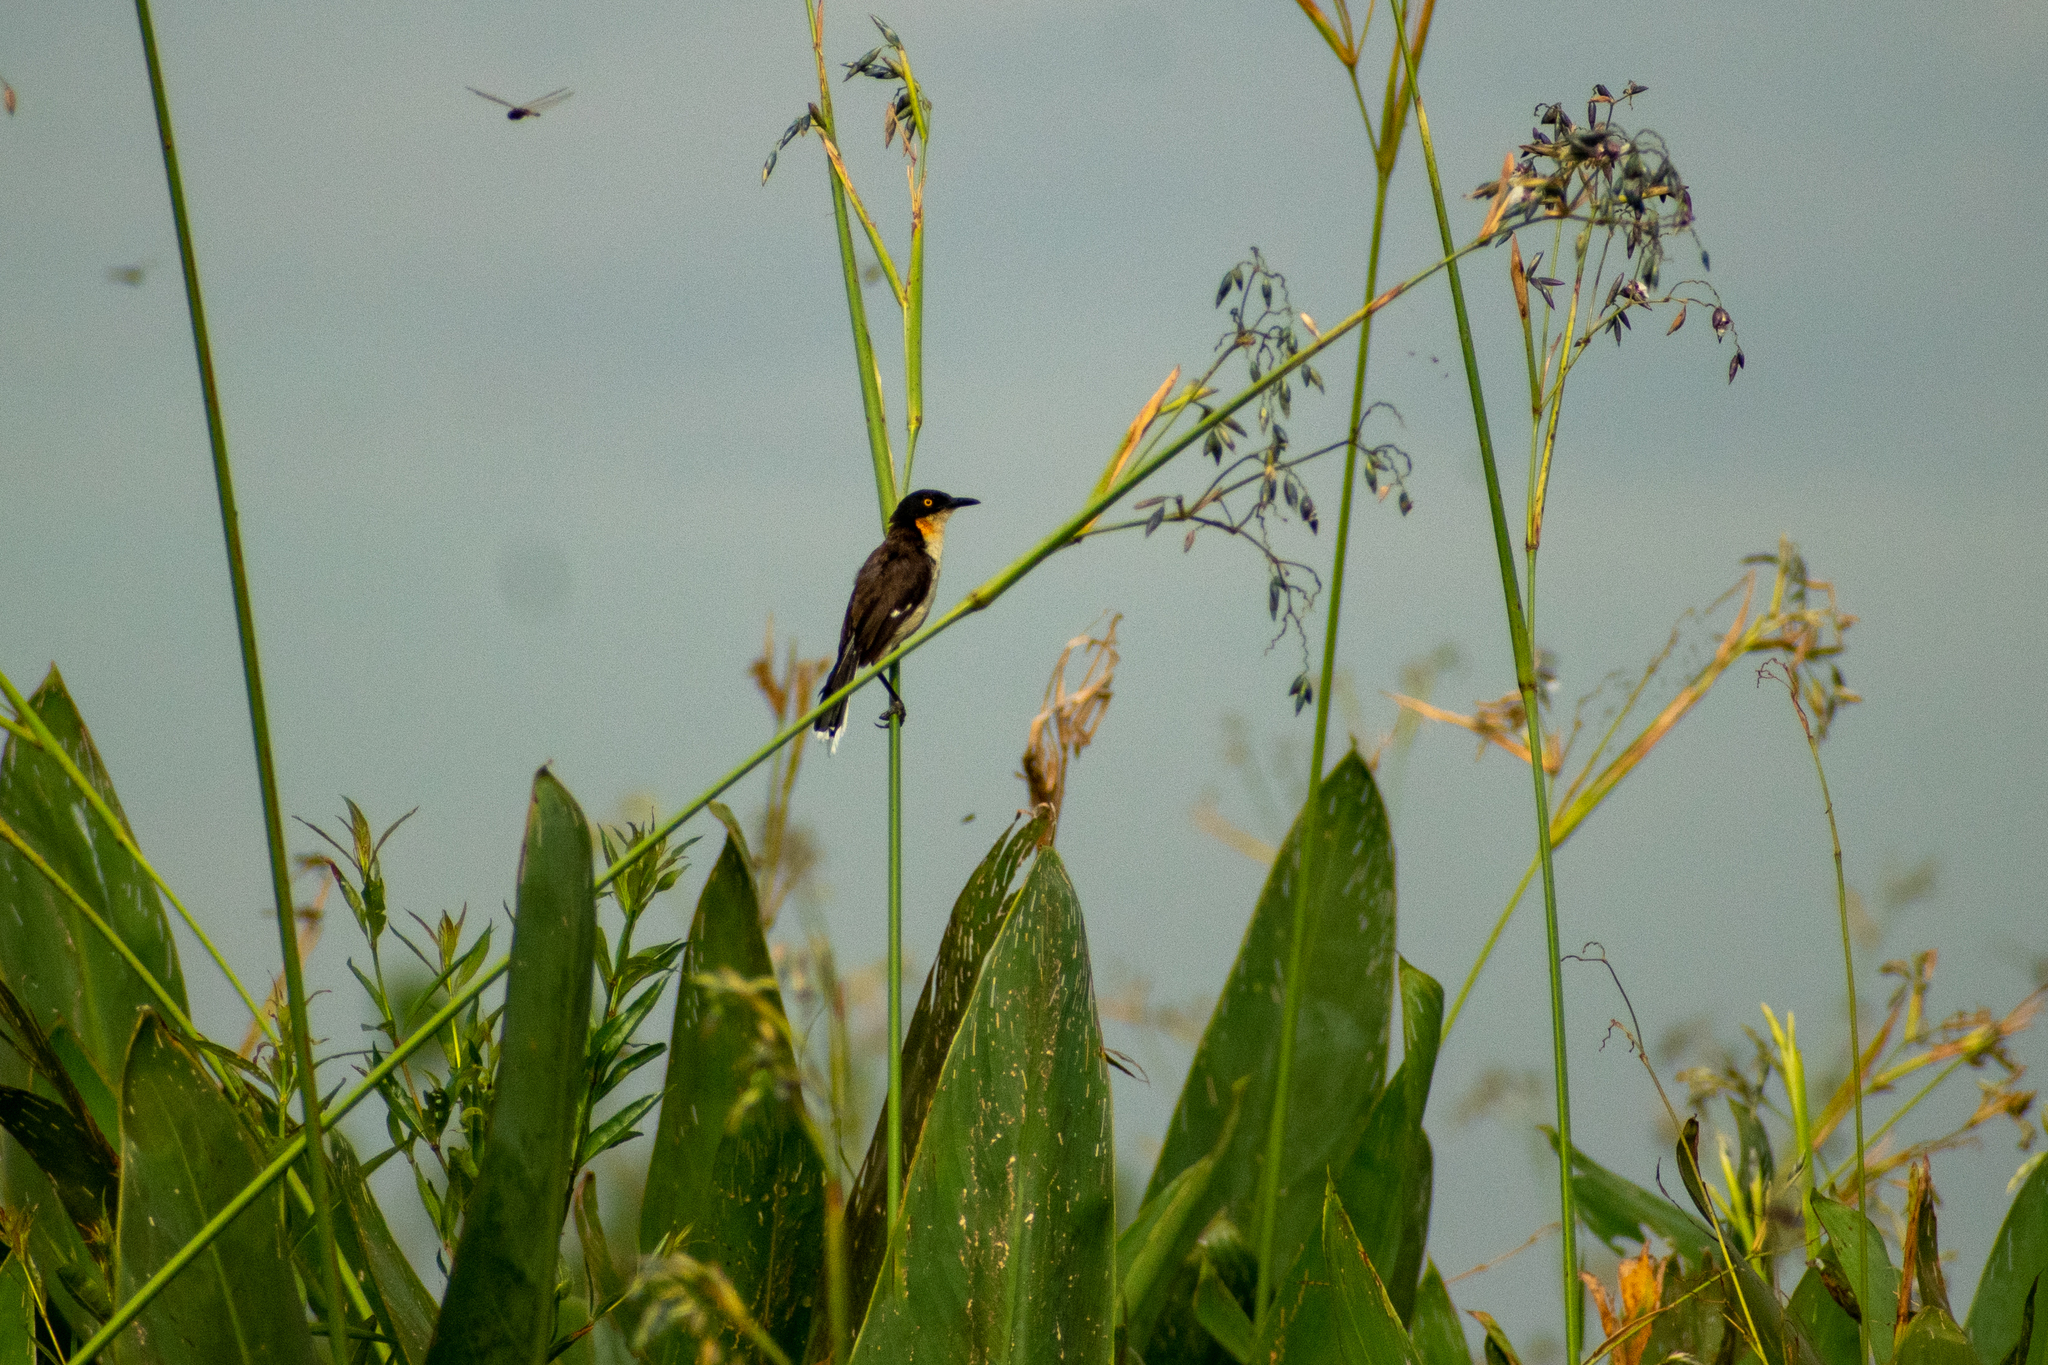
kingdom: Animalia
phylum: Chordata
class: Aves
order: Passeriformes
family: Donacobiidae
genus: Donacobius
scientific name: Donacobius atricapilla
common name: Black-capped donacobius
